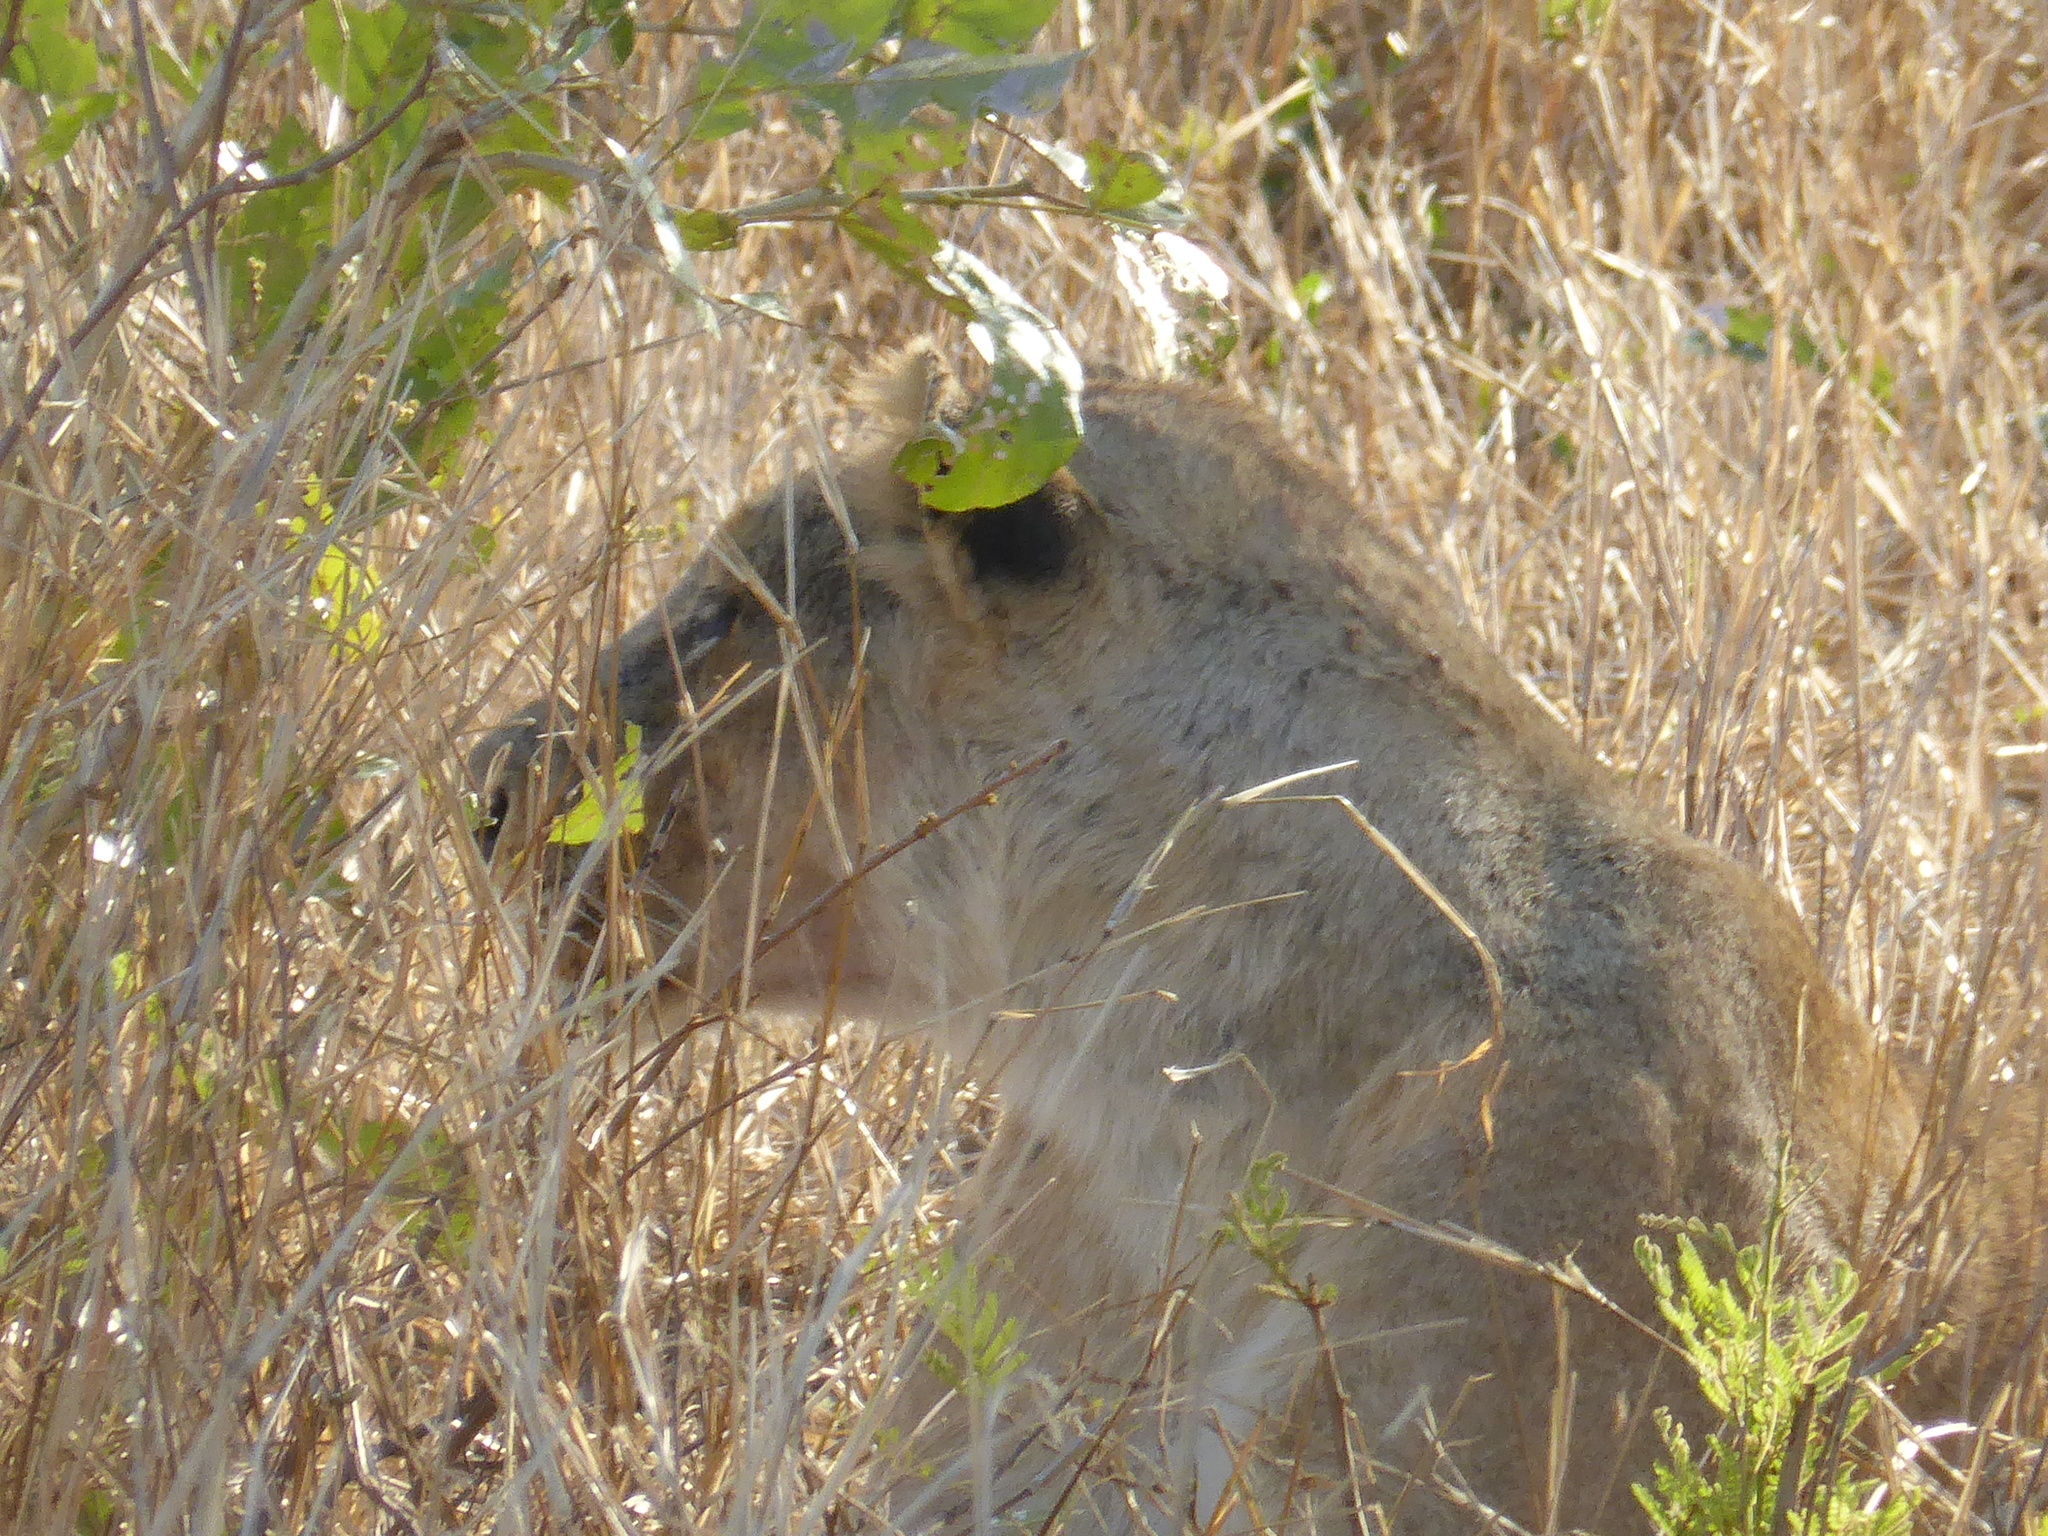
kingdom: Animalia
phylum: Chordata
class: Mammalia
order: Carnivora
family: Felidae
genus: Panthera
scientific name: Panthera leo
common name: Lion
